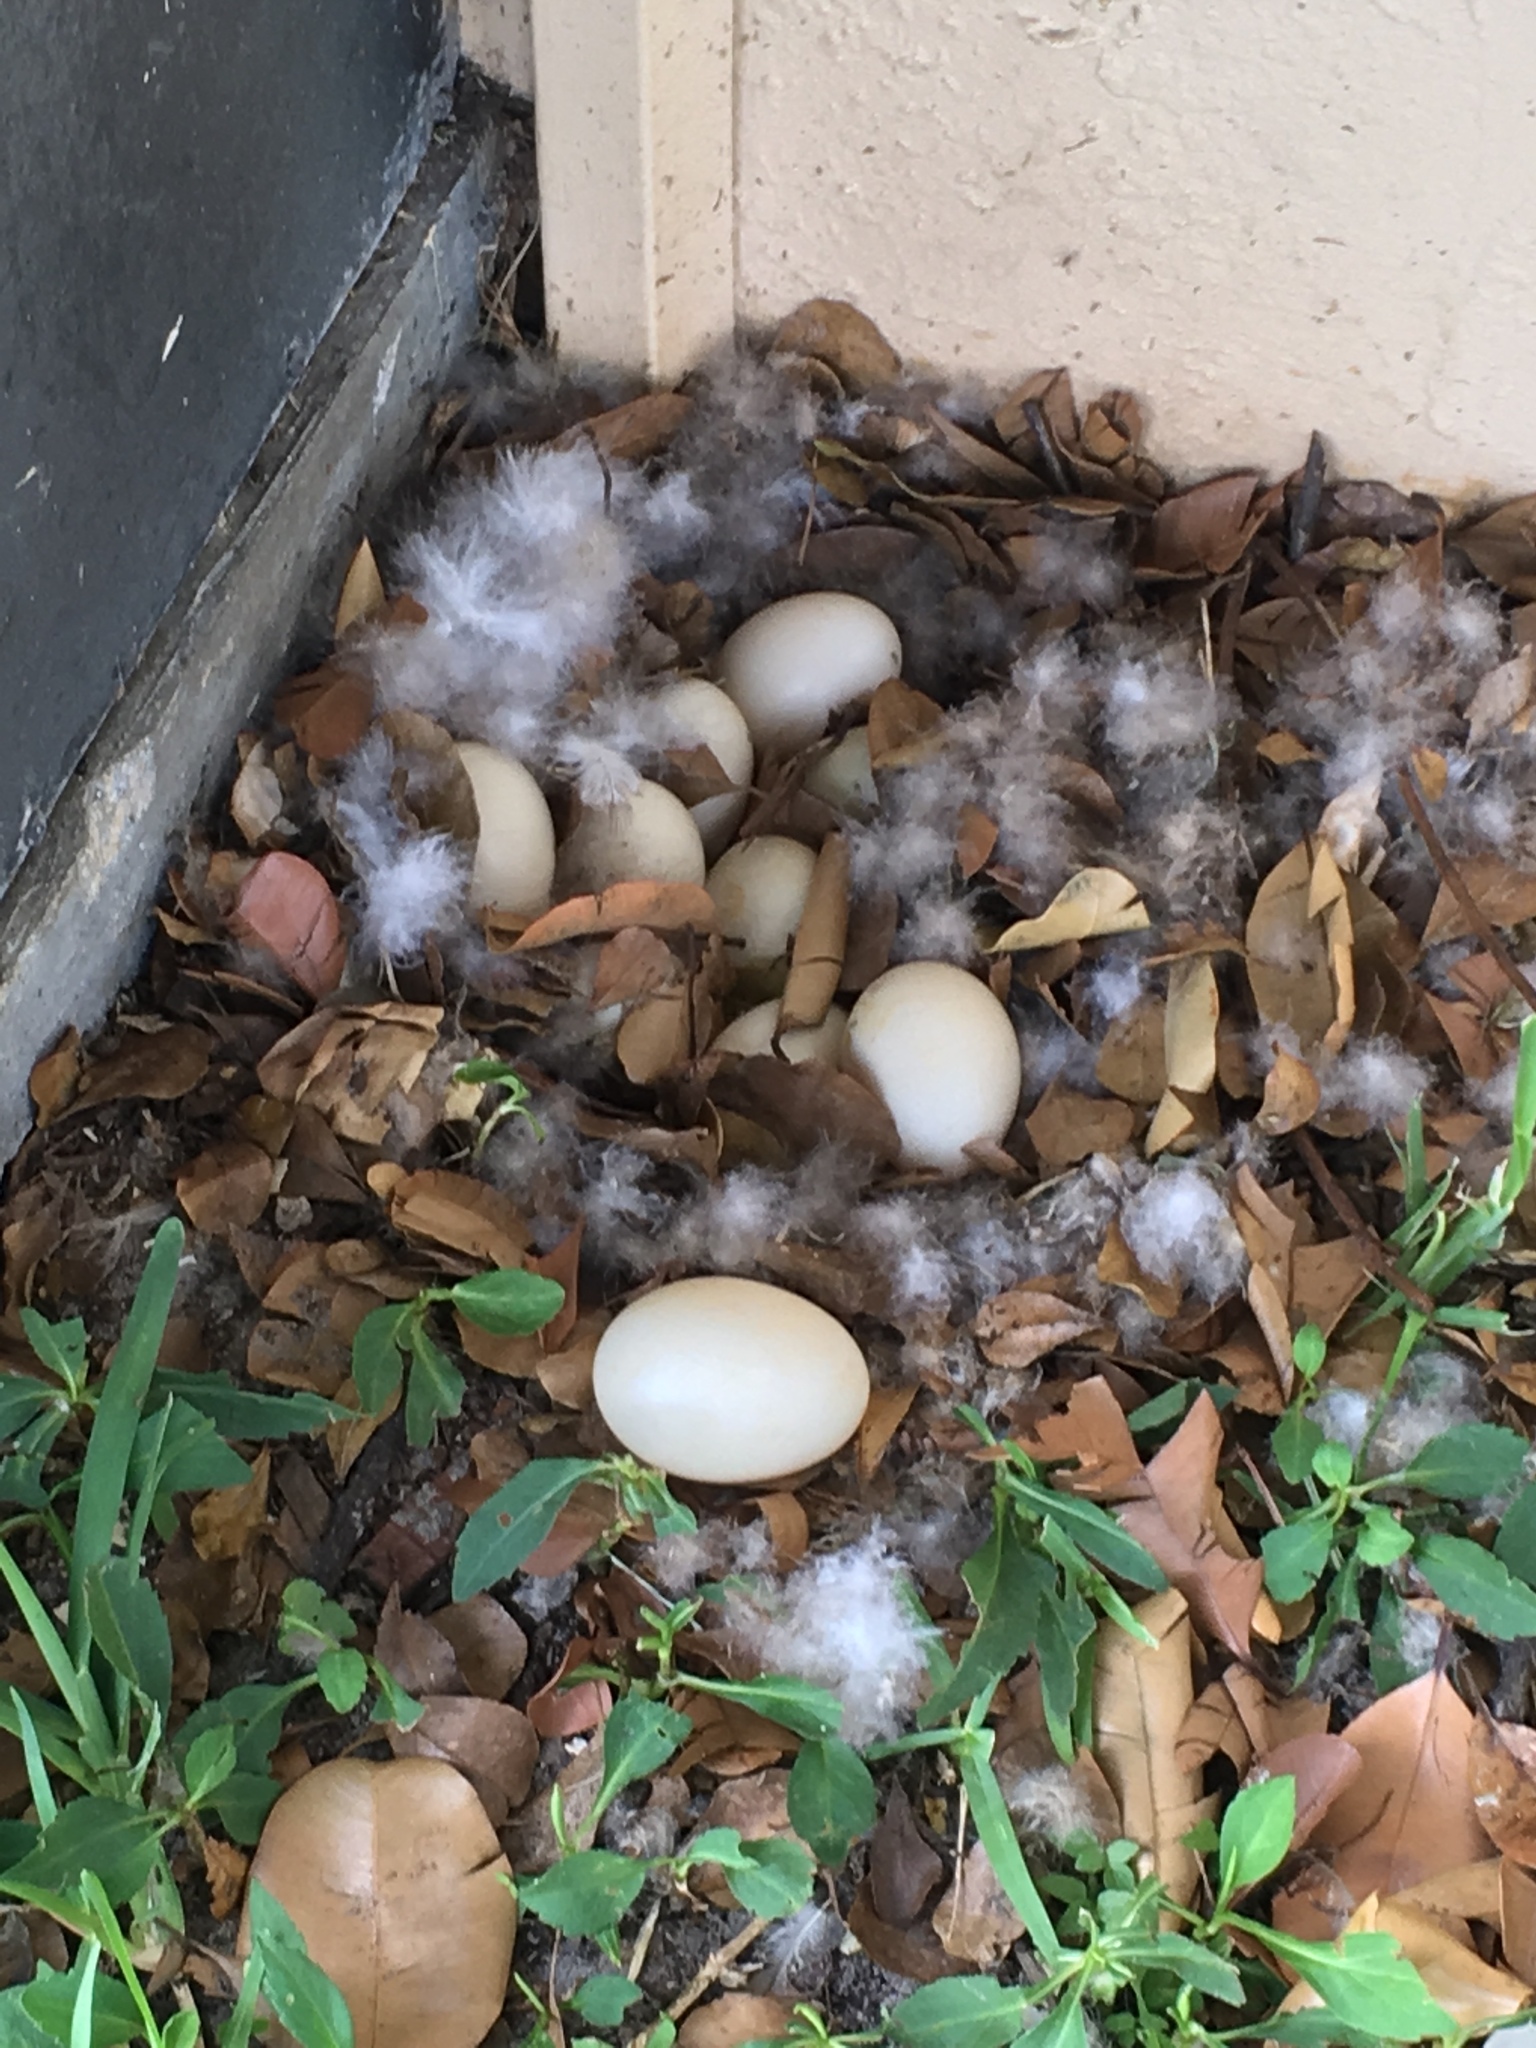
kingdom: Animalia
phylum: Chordata
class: Aves
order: Anseriformes
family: Anatidae
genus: Cairina
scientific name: Cairina moschata
